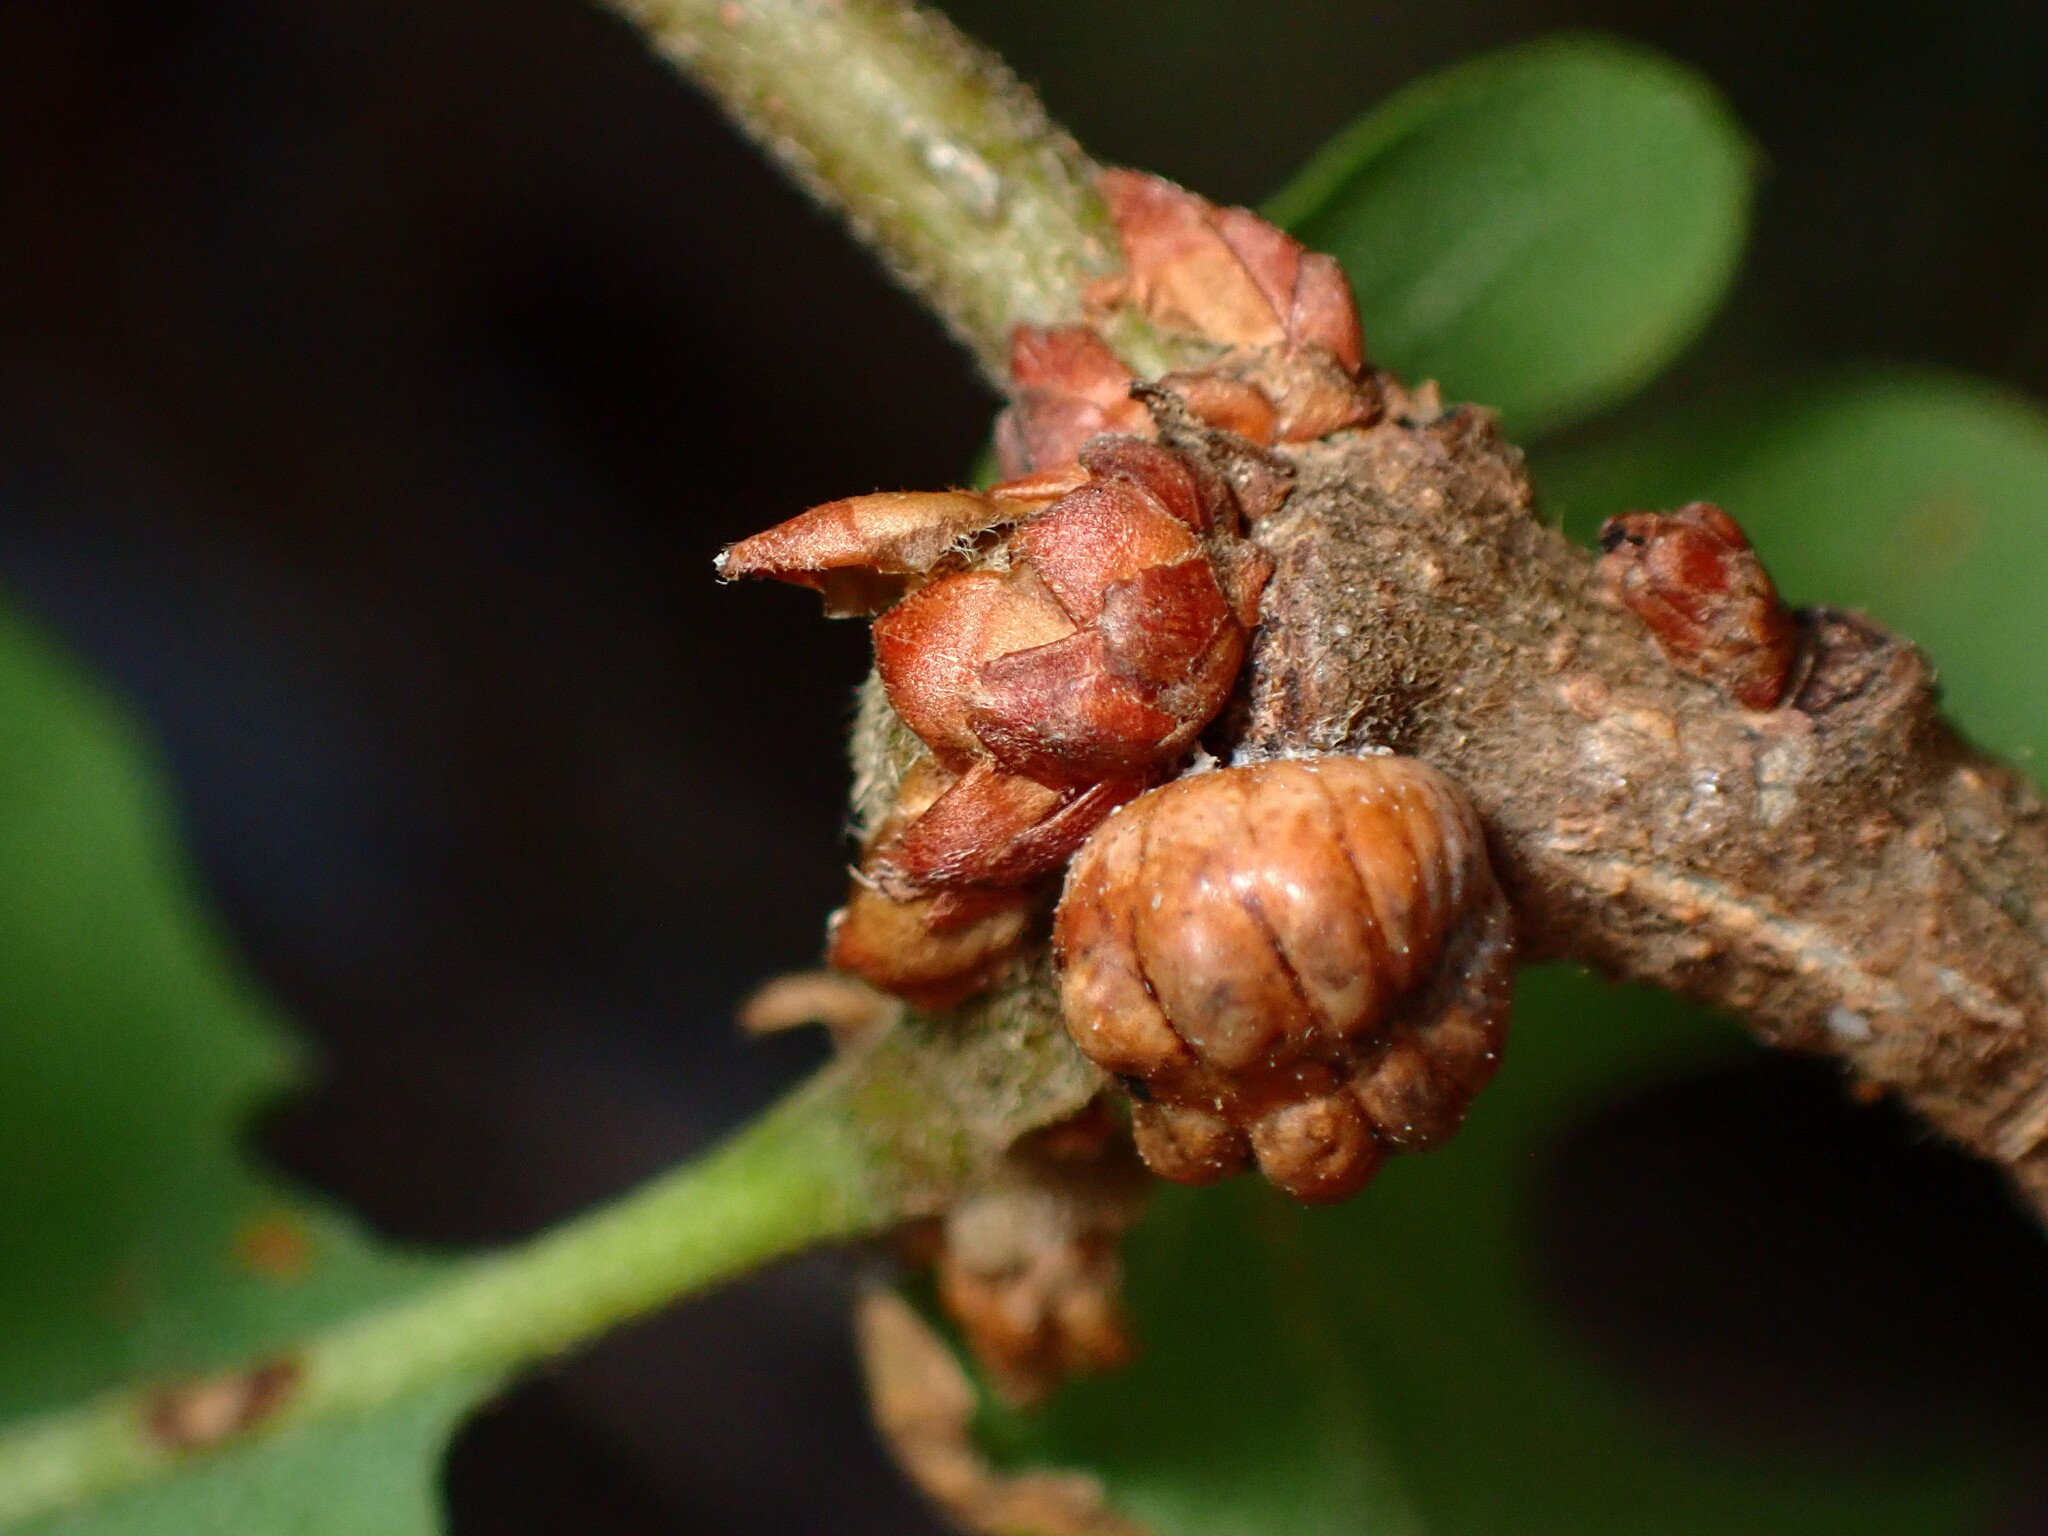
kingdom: Animalia
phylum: Arthropoda
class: Insecta
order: Hemiptera
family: Kermesidae
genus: Kermes
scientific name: Kermes cockerelli
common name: Cockerell's kermes
